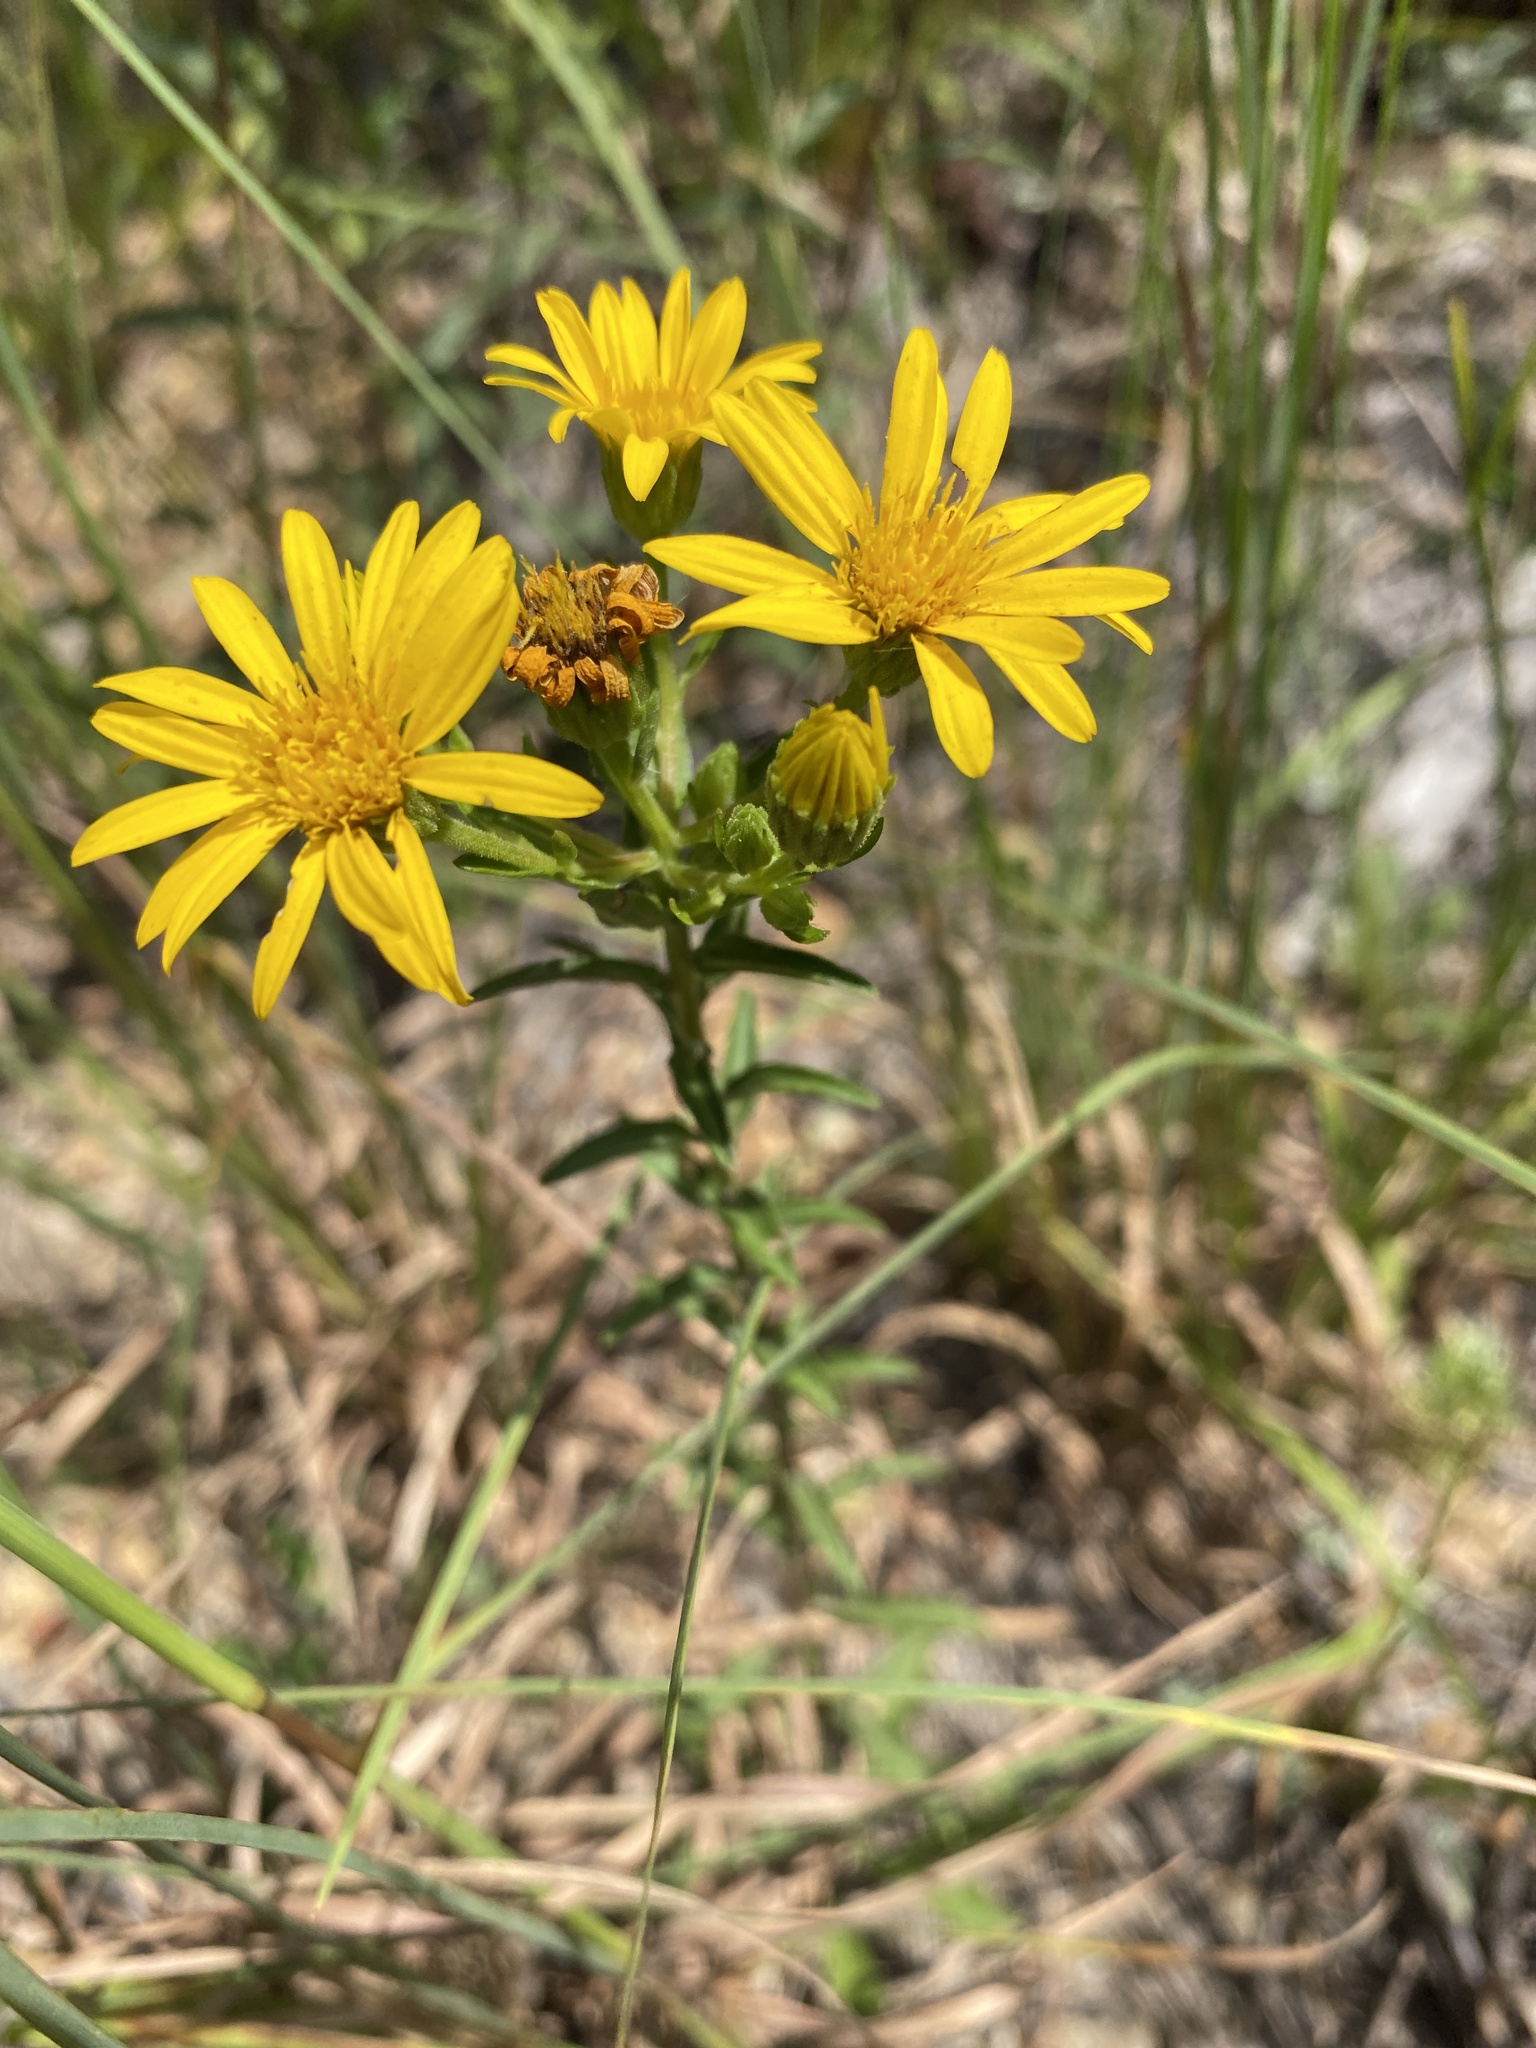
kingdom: Plantae
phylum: Tracheophyta
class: Magnoliopsida
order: Asterales
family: Asteraceae
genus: Chrysopsis
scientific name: Chrysopsis mariana
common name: Maryland golden-aster
